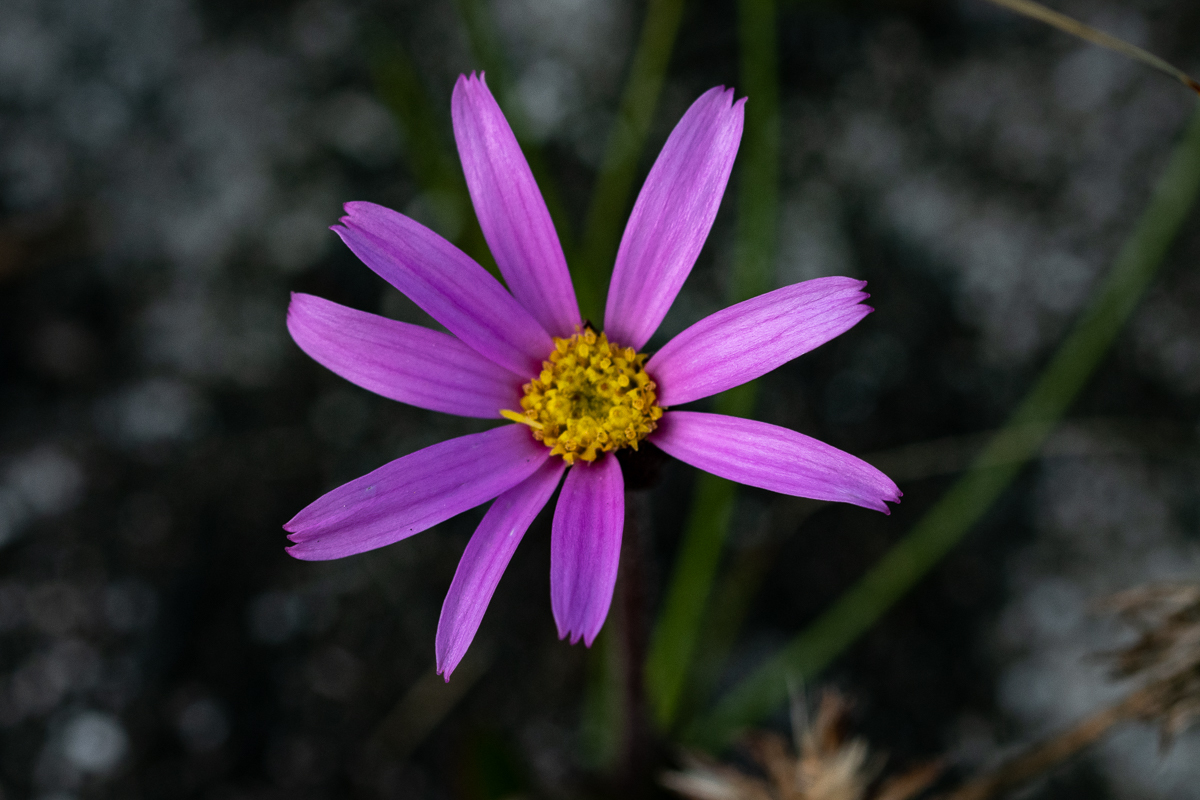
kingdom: Plantae
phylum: Tracheophyta
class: Magnoliopsida
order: Asterales
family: Asteraceae
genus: Mairia
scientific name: Mairia coriacea
